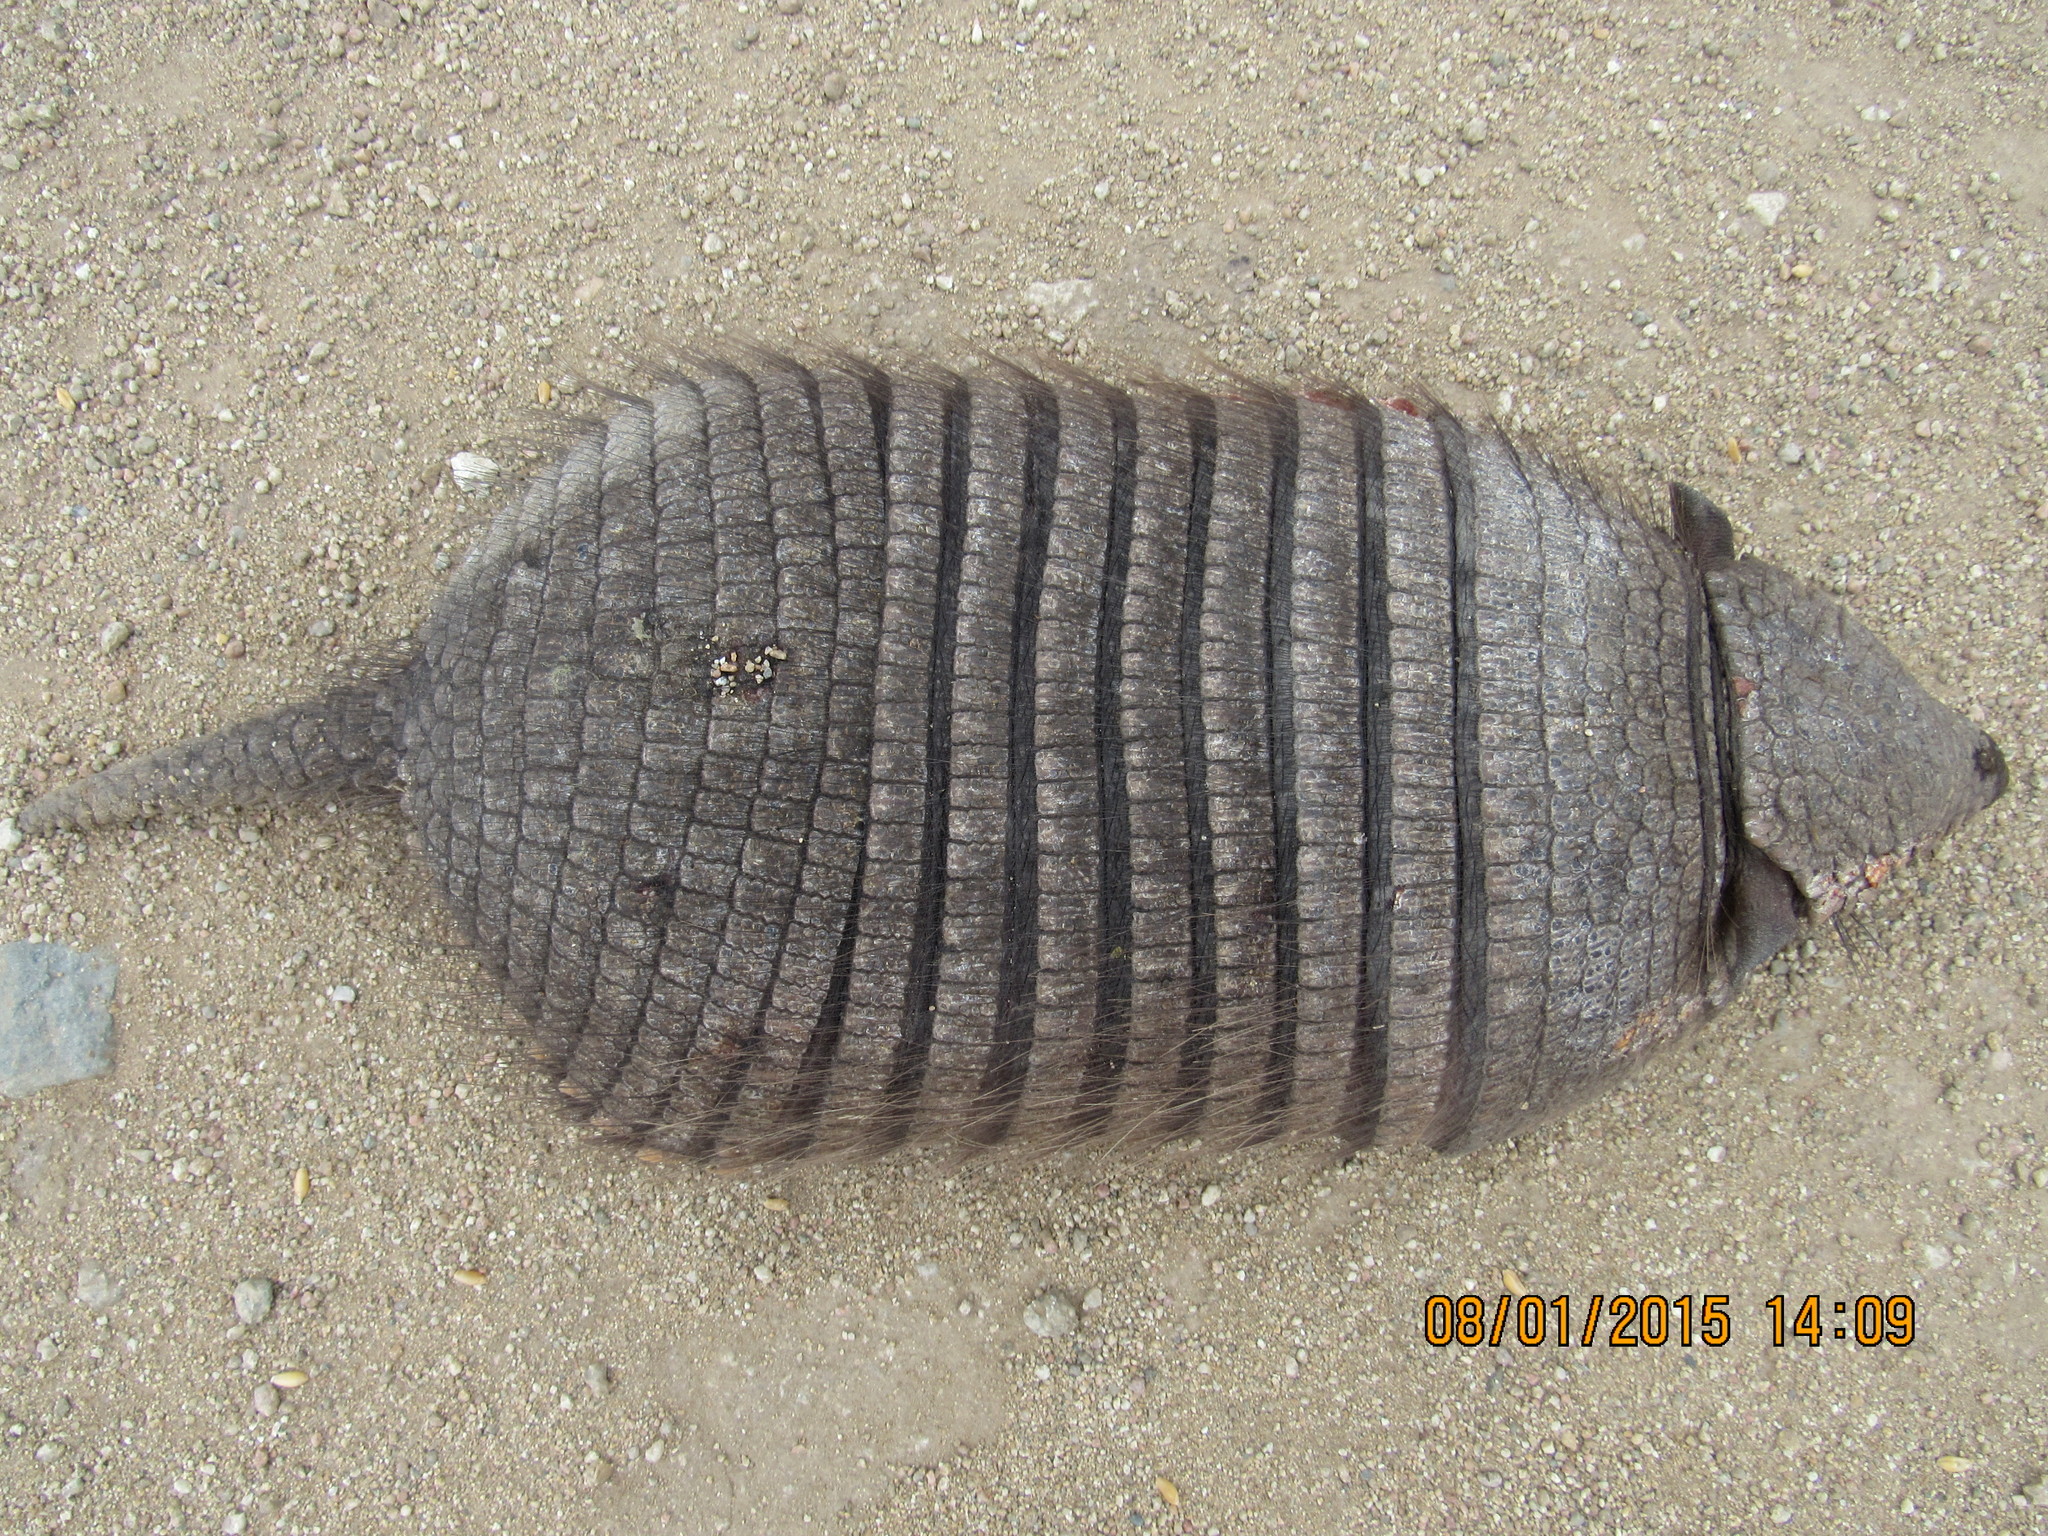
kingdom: Animalia
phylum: Chordata
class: Mammalia
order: Cingulata
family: Dasypodidae
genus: Chaetophractus
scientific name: Chaetophractus villosus
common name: Big hairy armadillo
